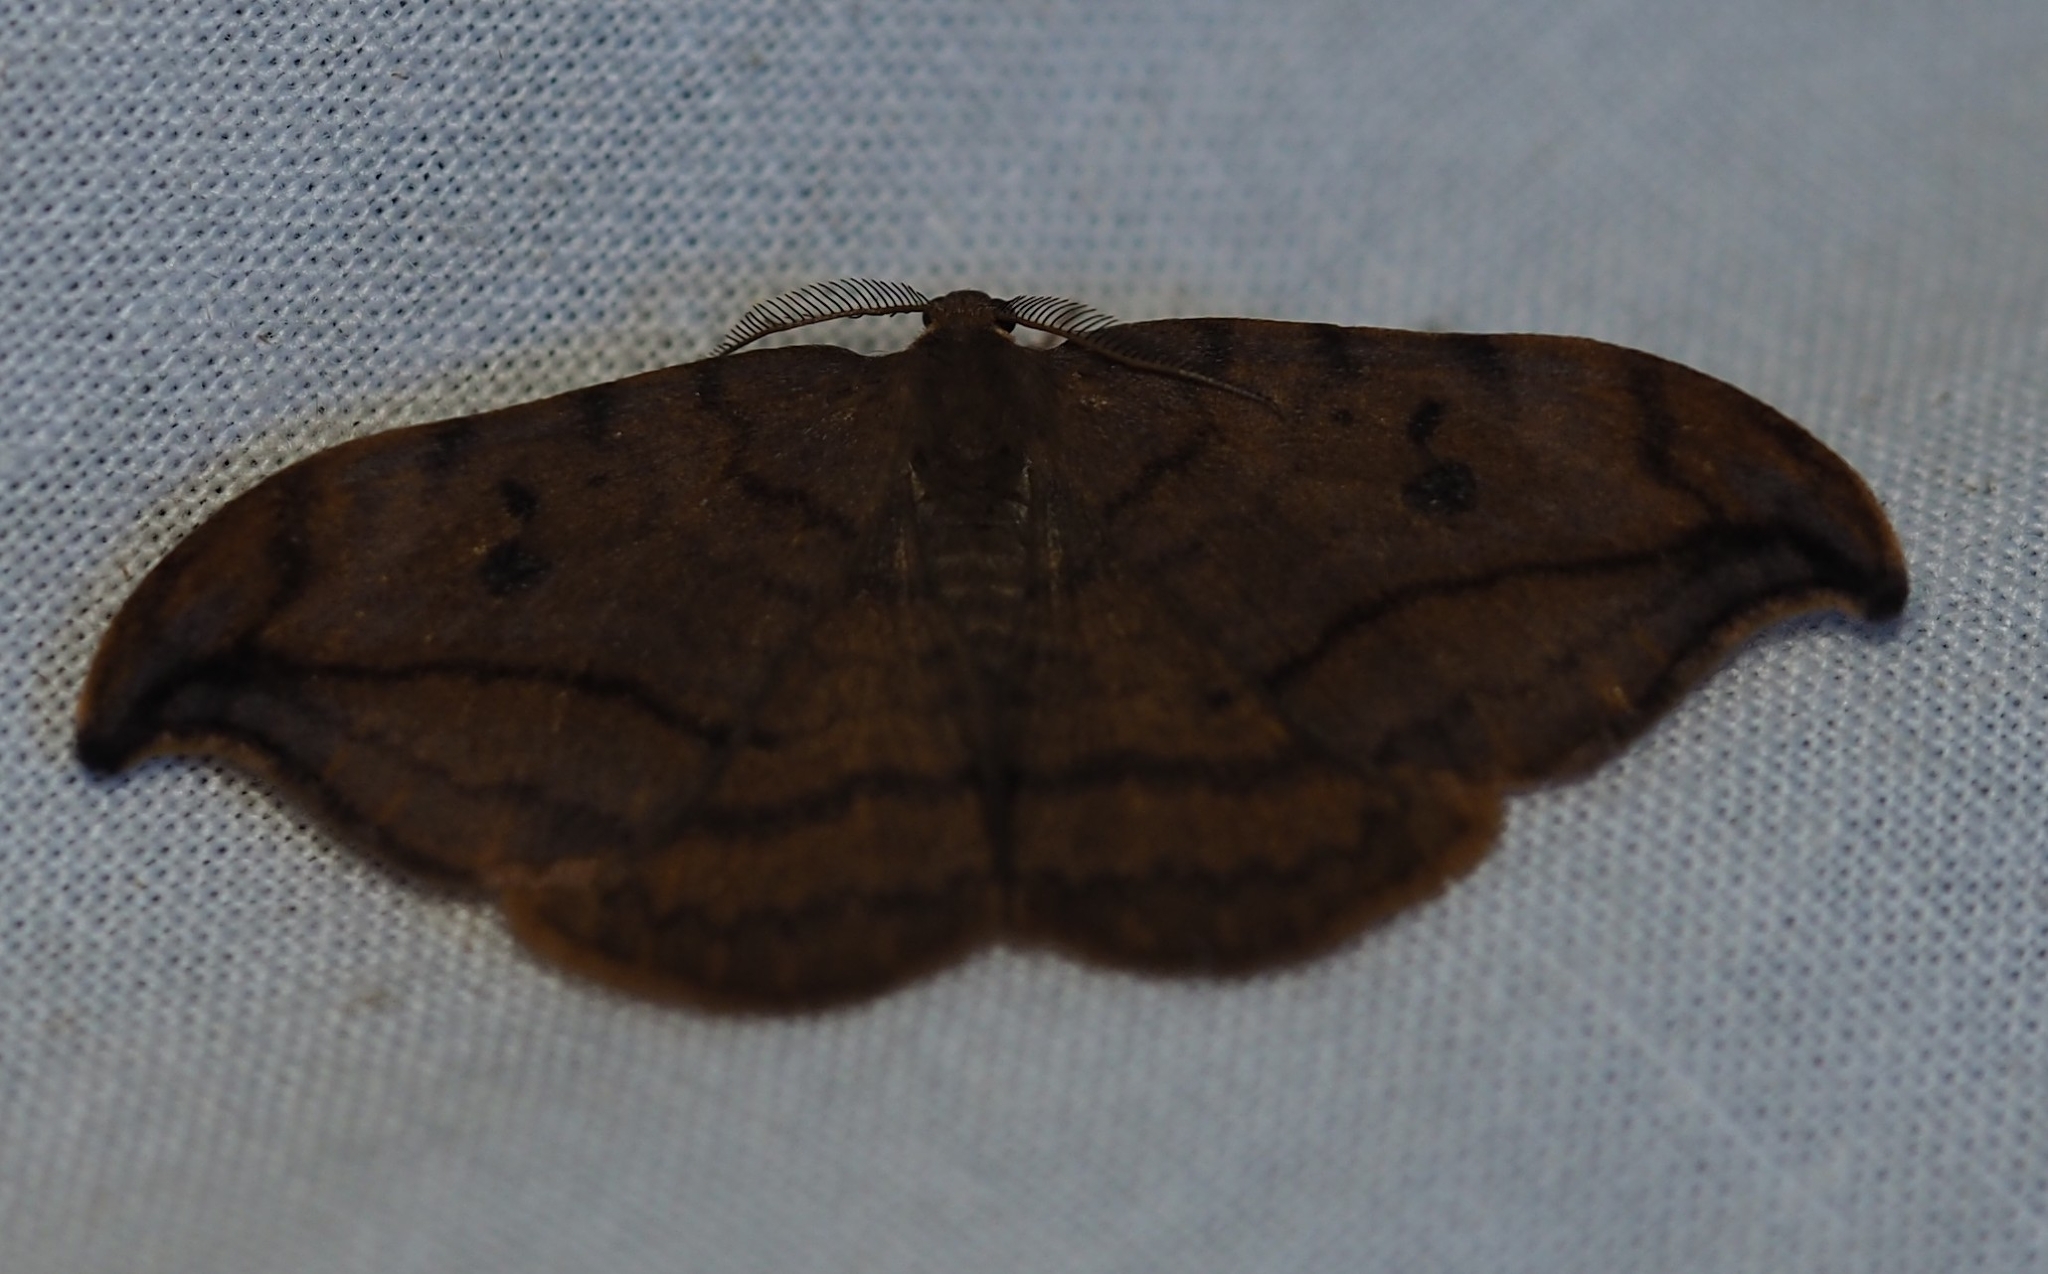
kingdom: Animalia
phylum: Arthropoda
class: Insecta
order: Lepidoptera
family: Drepanidae
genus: Drepana
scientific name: Drepana curvatula
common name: Dusky hook-tip
